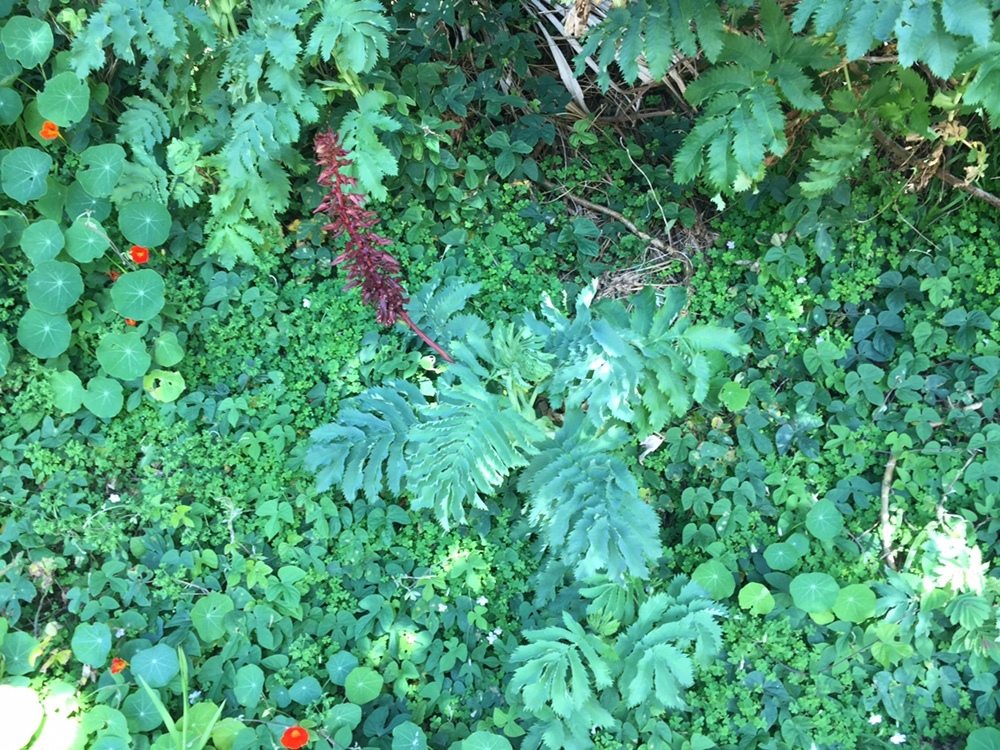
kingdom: Plantae
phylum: Tracheophyta
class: Magnoliopsida
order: Geraniales
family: Melianthaceae
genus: Melianthus
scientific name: Melianthus major
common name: Honey-flower
